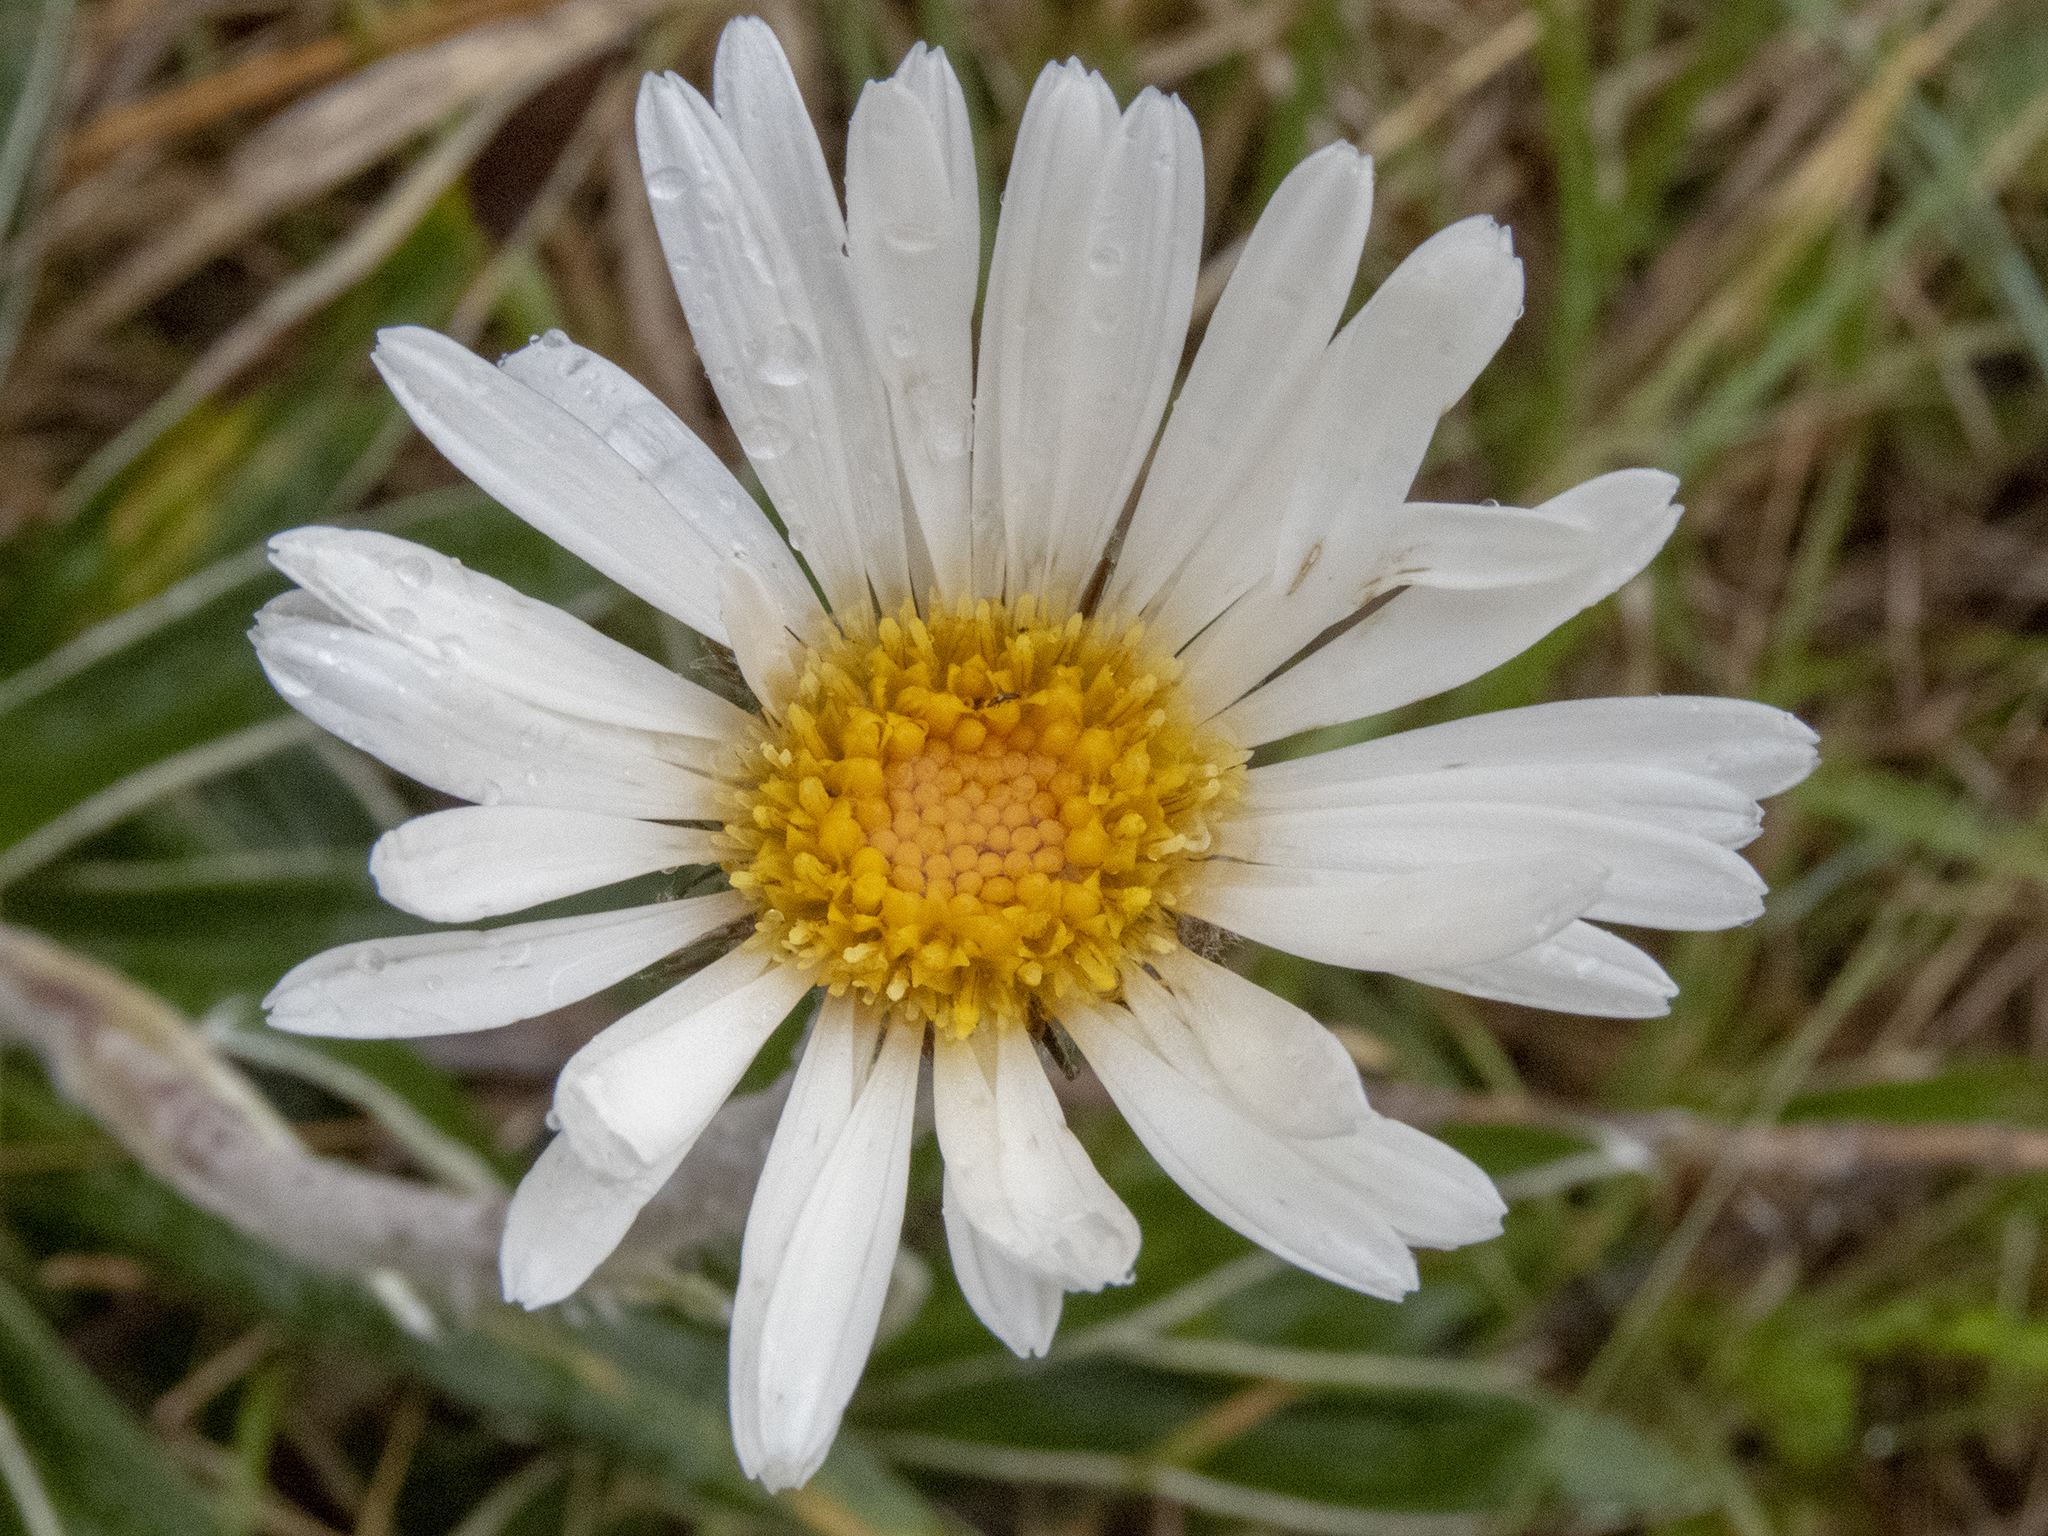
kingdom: Plantae
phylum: Tracheophyta
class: Magnoliopsida
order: Asterales
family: Asteraceae
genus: Celmisia
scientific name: Celmisia spectabilis
